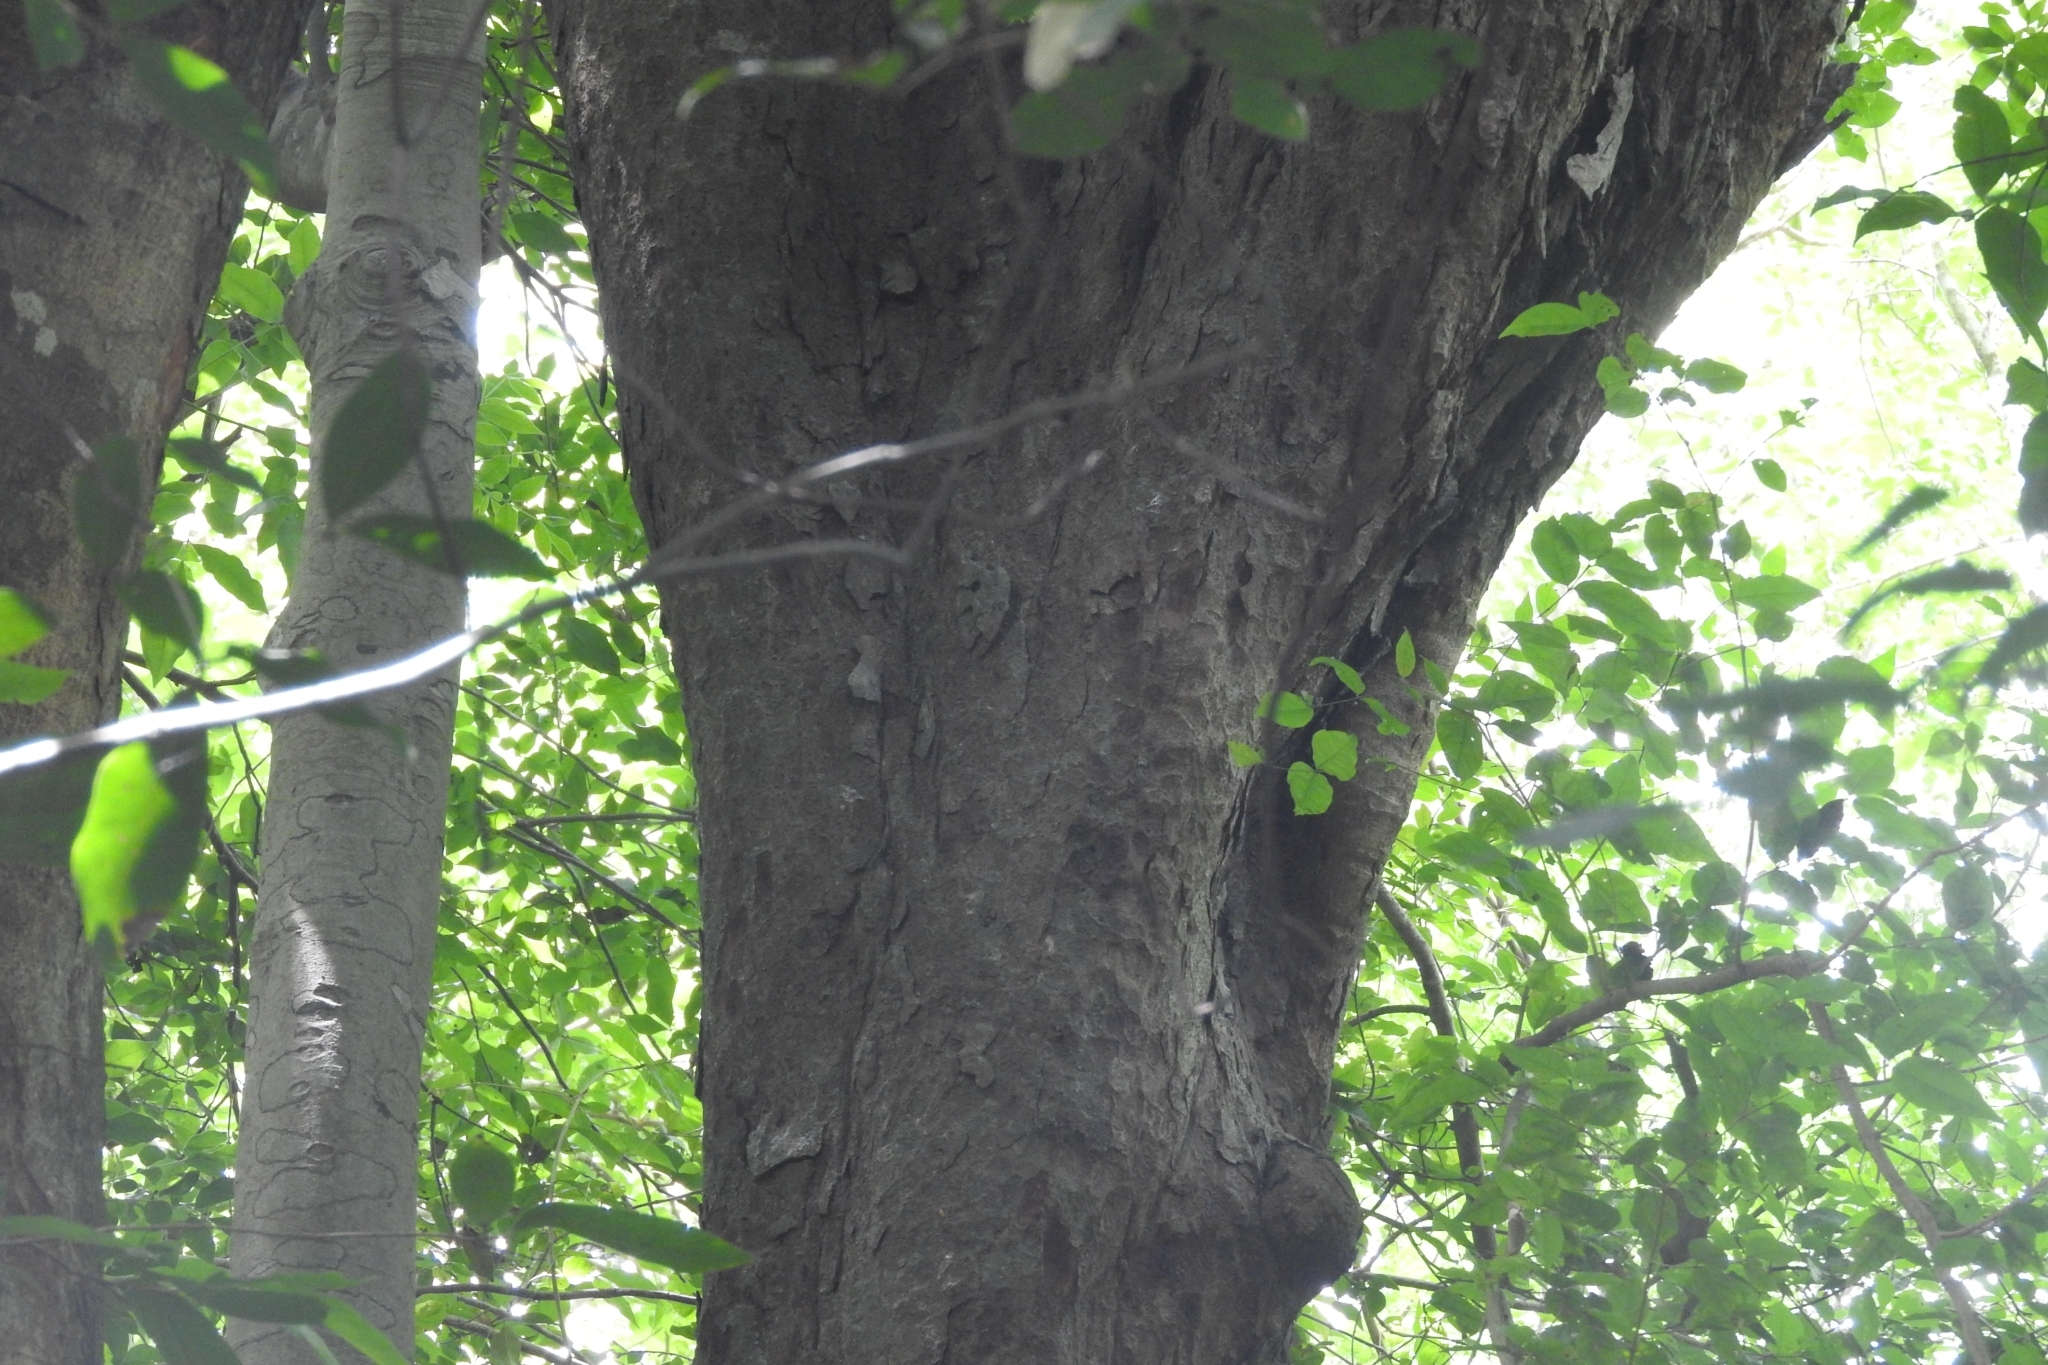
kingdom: Plantae
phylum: Tracheophyta
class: Magnoliopsida
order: Rosales
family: Moraceae
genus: Brosimum
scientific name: Brosimum alicastrum
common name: Breadnut
